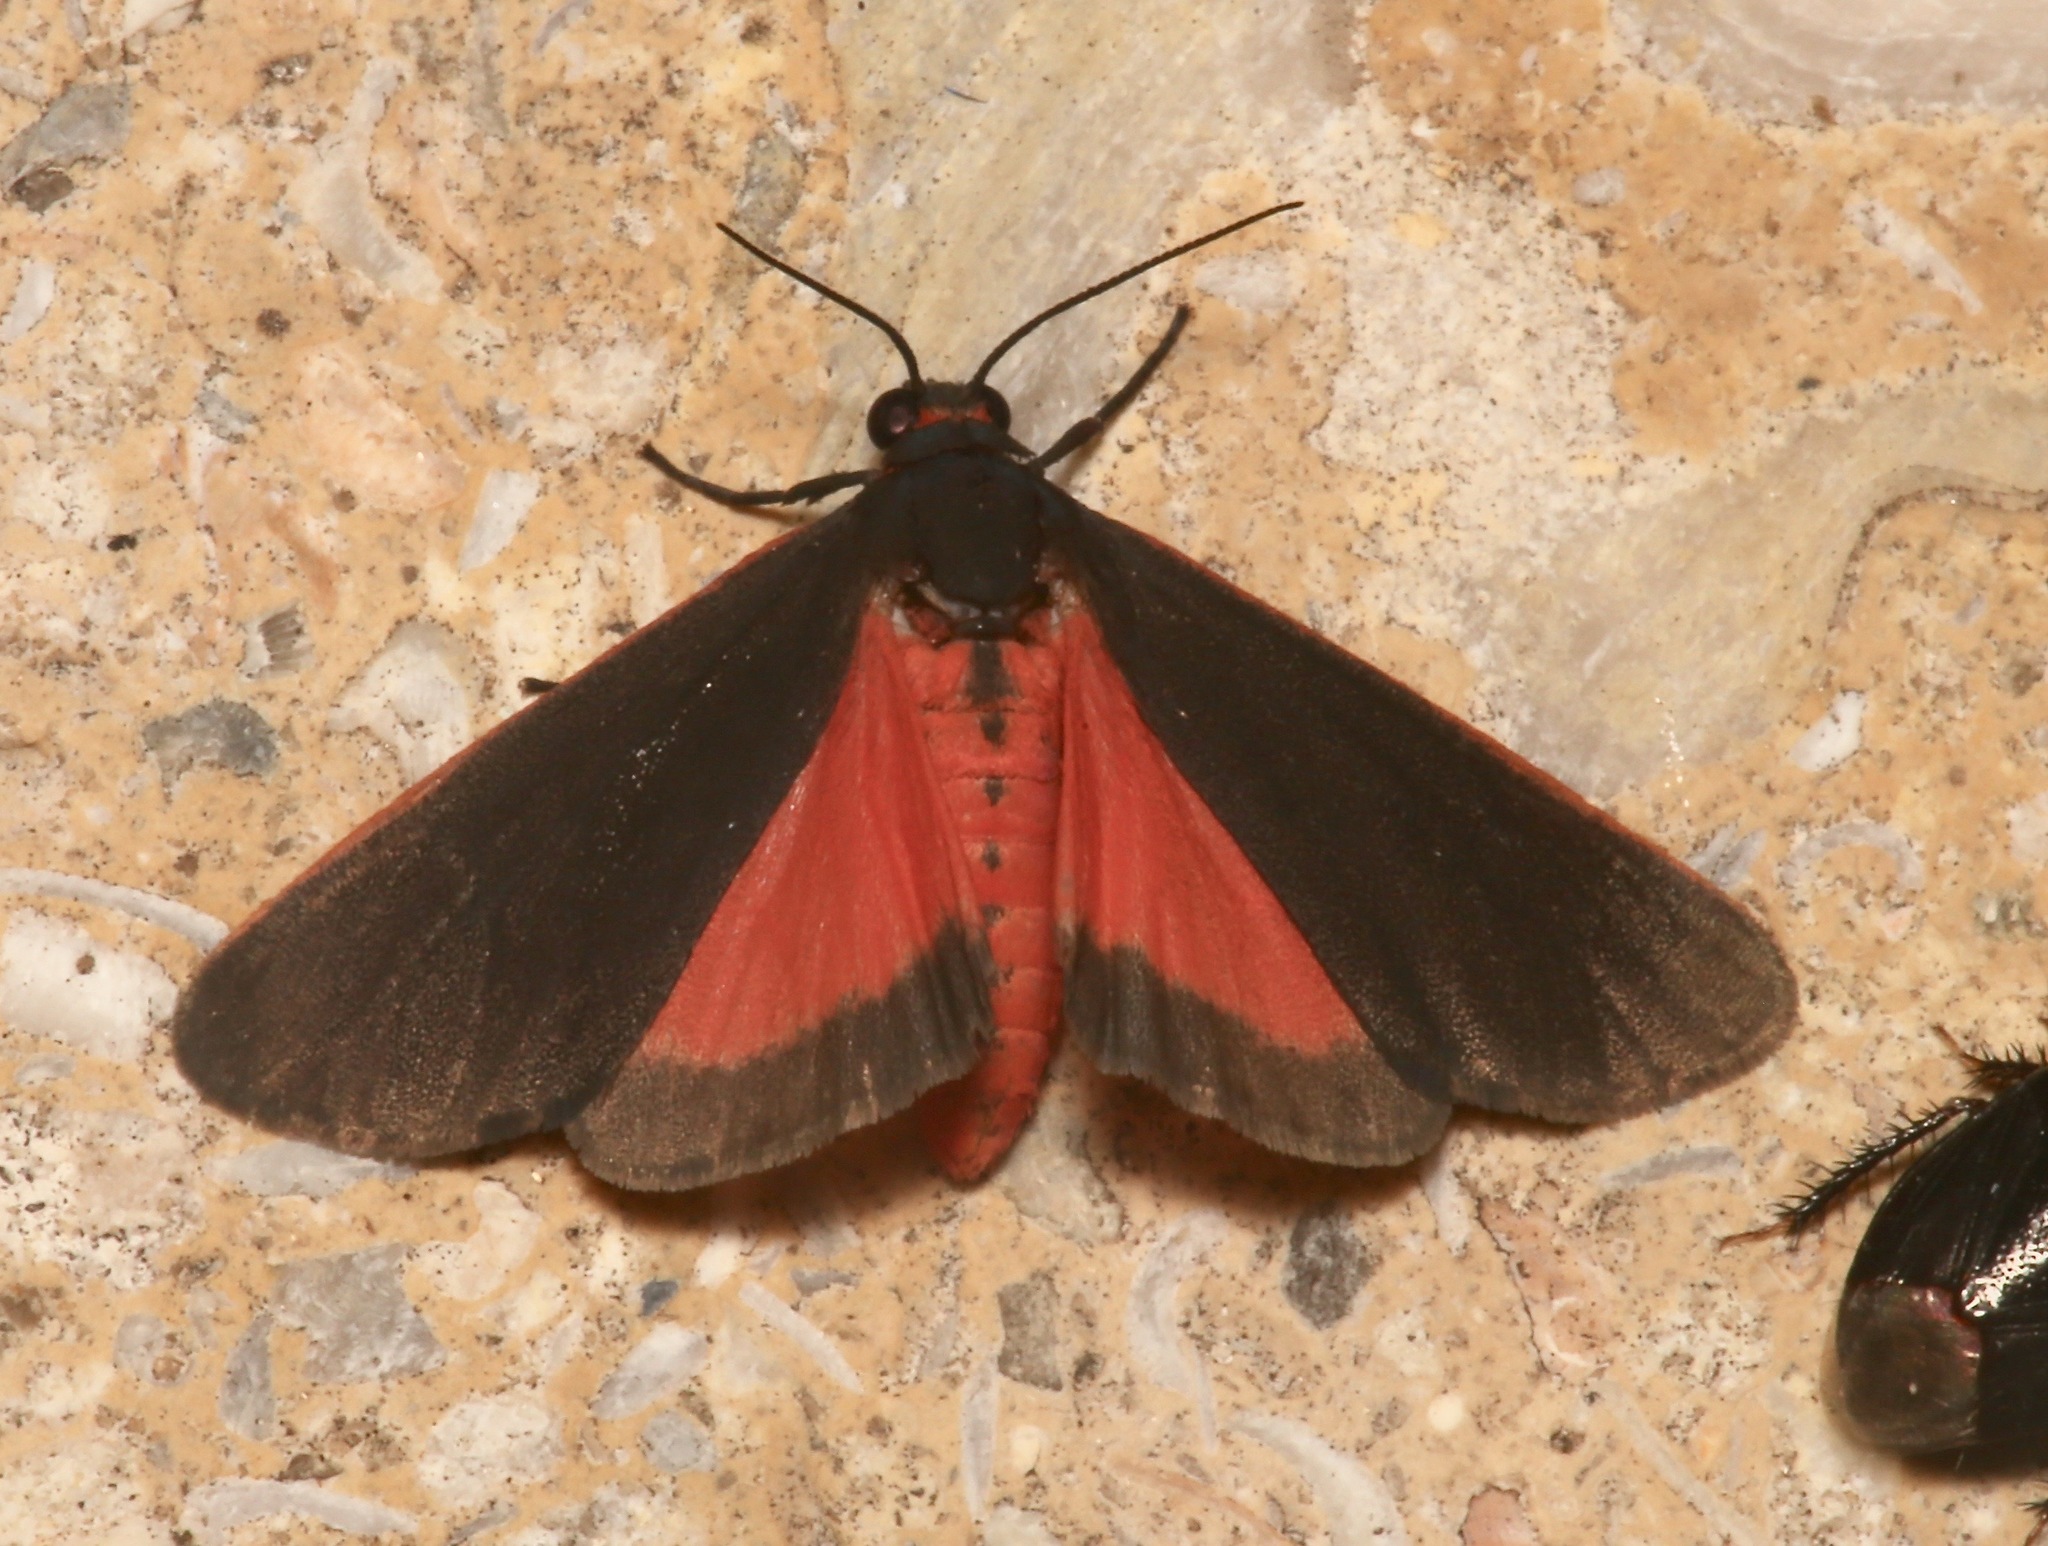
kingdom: Animalia
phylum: Arthropoda
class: Insecta
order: Lepidoptera
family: Erebidae
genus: Virbia
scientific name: Virbia laeta
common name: Joyful holomelina moth
